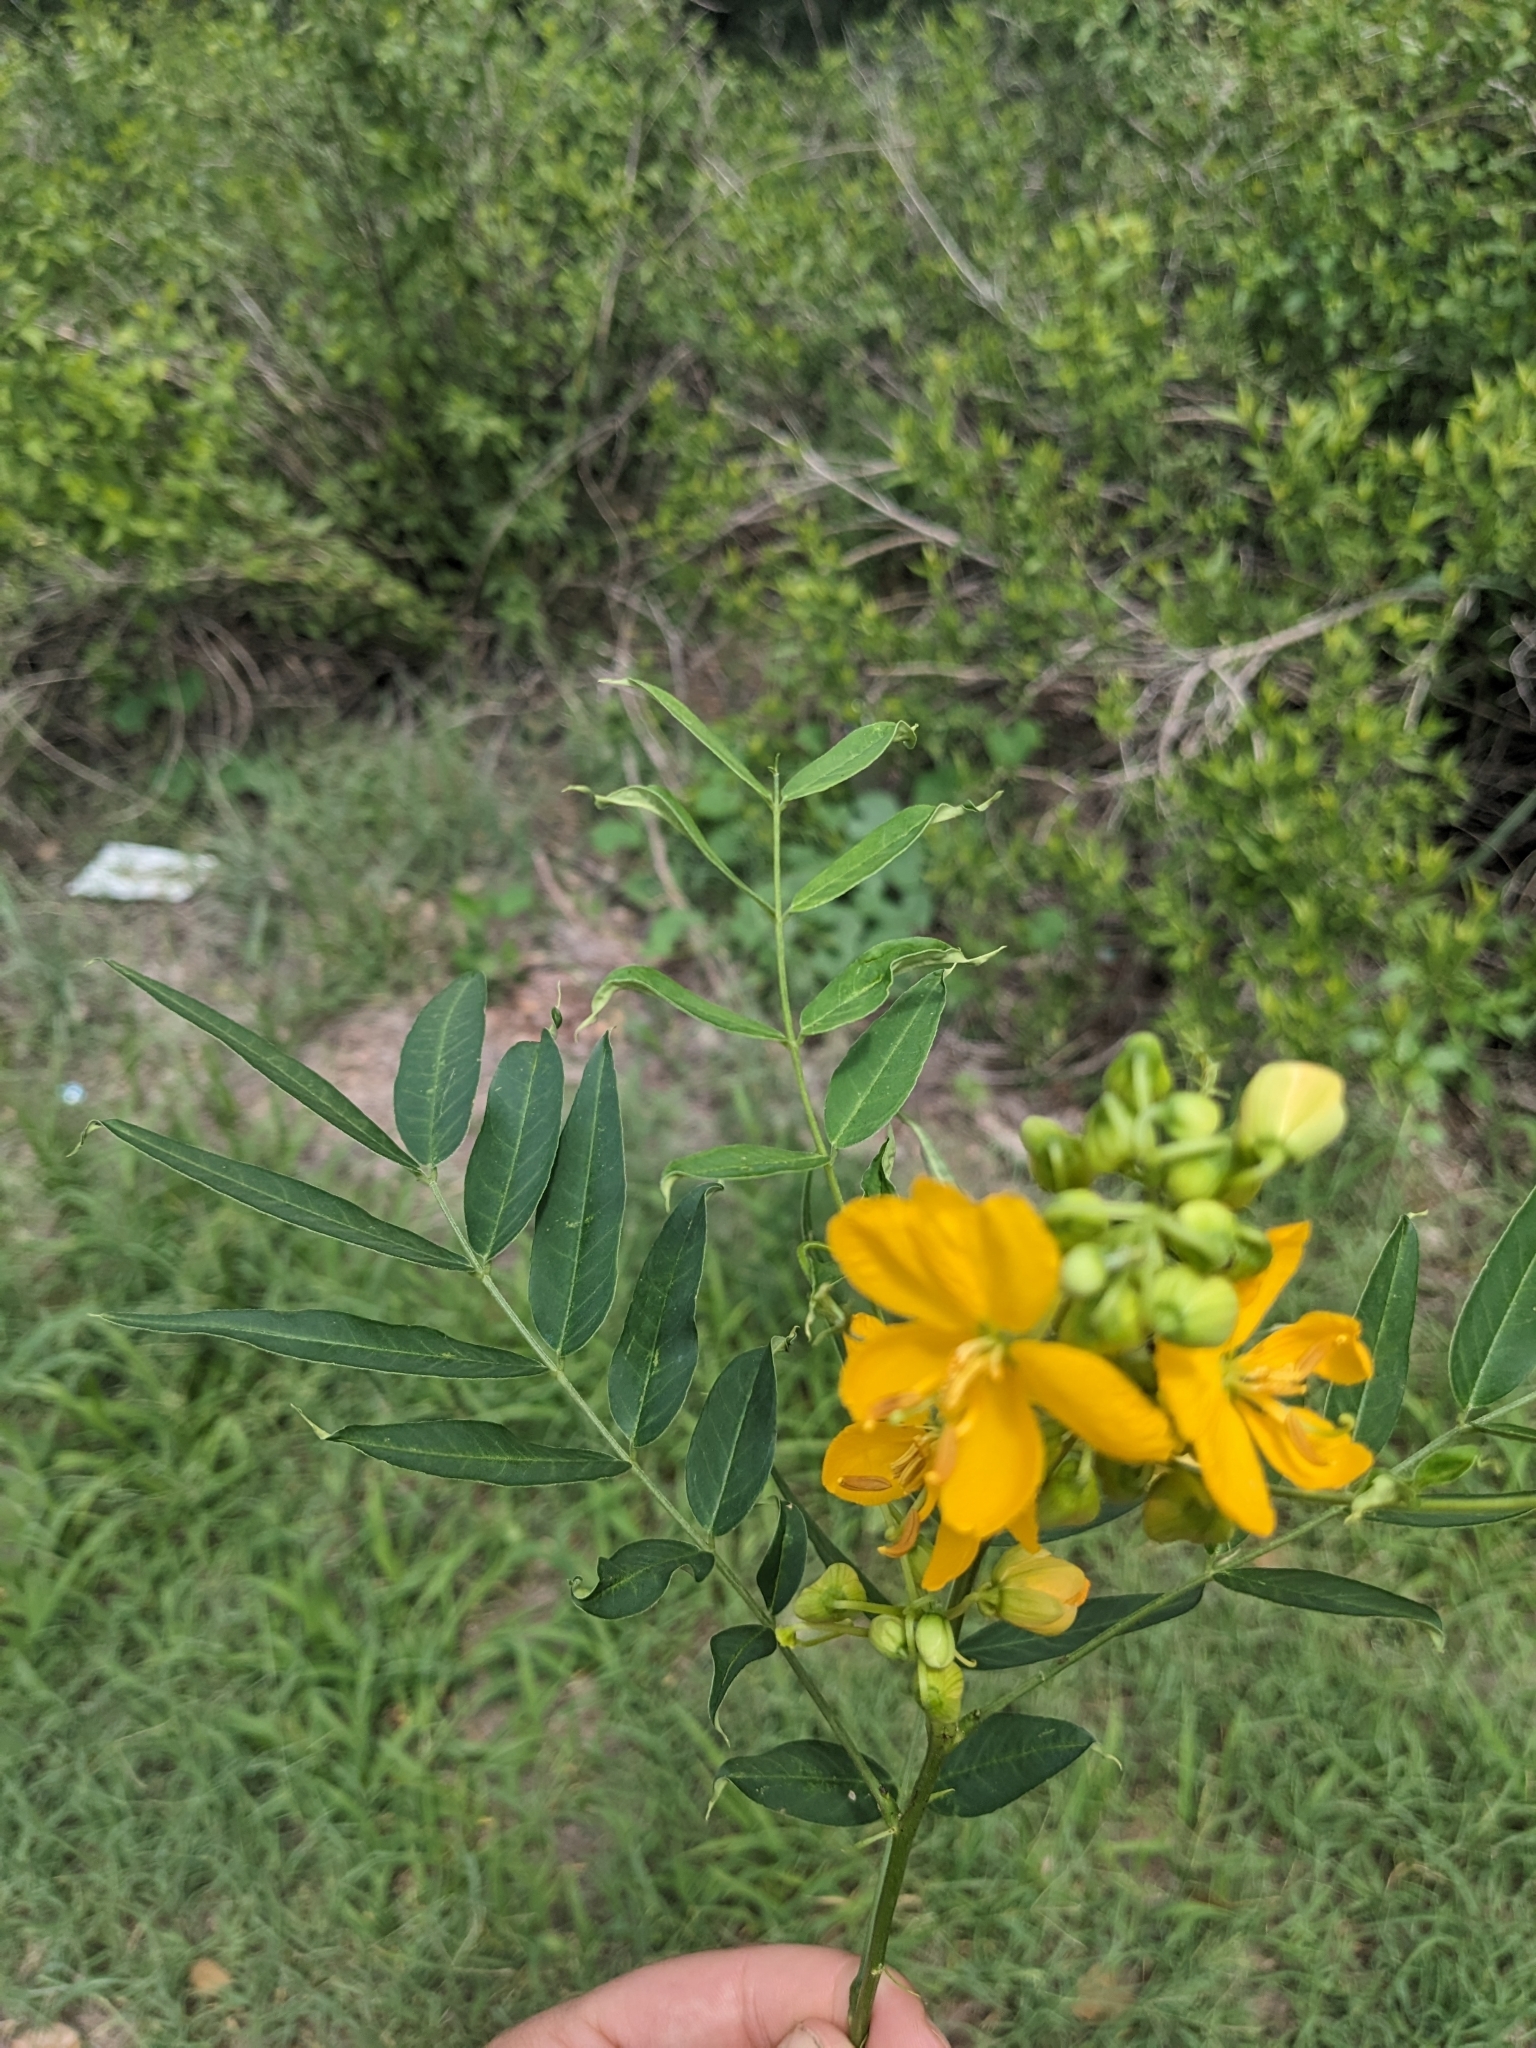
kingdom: Plantae
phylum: Tracheophyta
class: Magnoliopsida
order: Fabales
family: Fabaceae
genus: Senna
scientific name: Senna hirsuta
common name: Woolly senna
